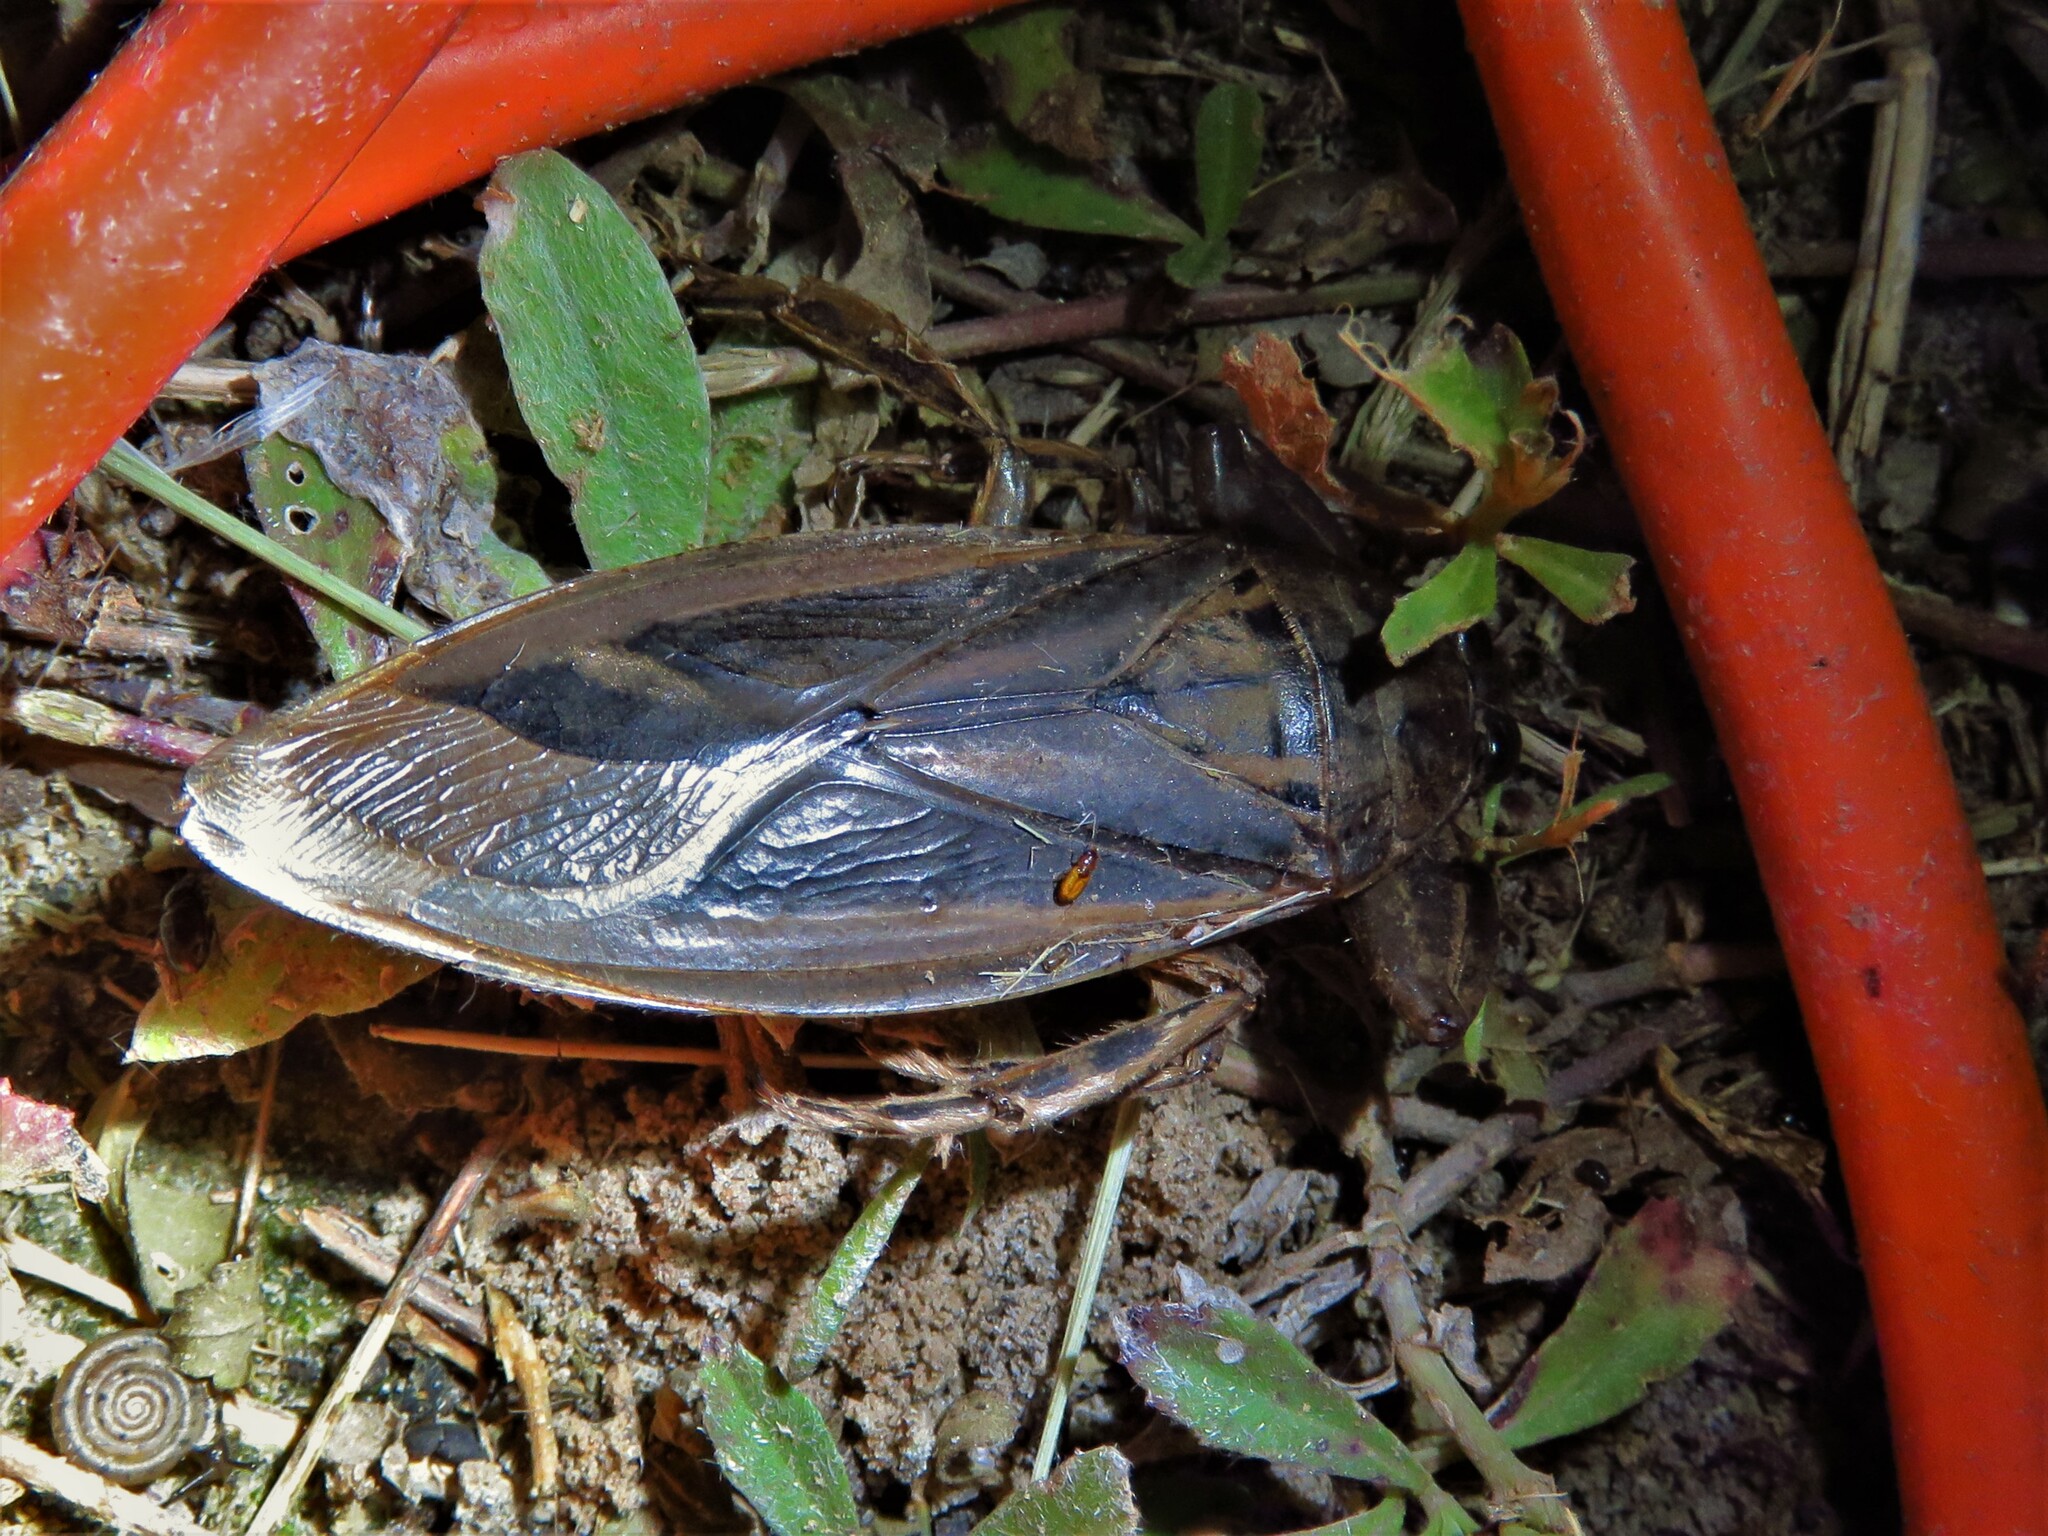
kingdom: Animalia
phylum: Arthropoda
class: Insecta
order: Hemiptera
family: Belostomatidae
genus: Lethocerus
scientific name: Lethocerus uhleri
